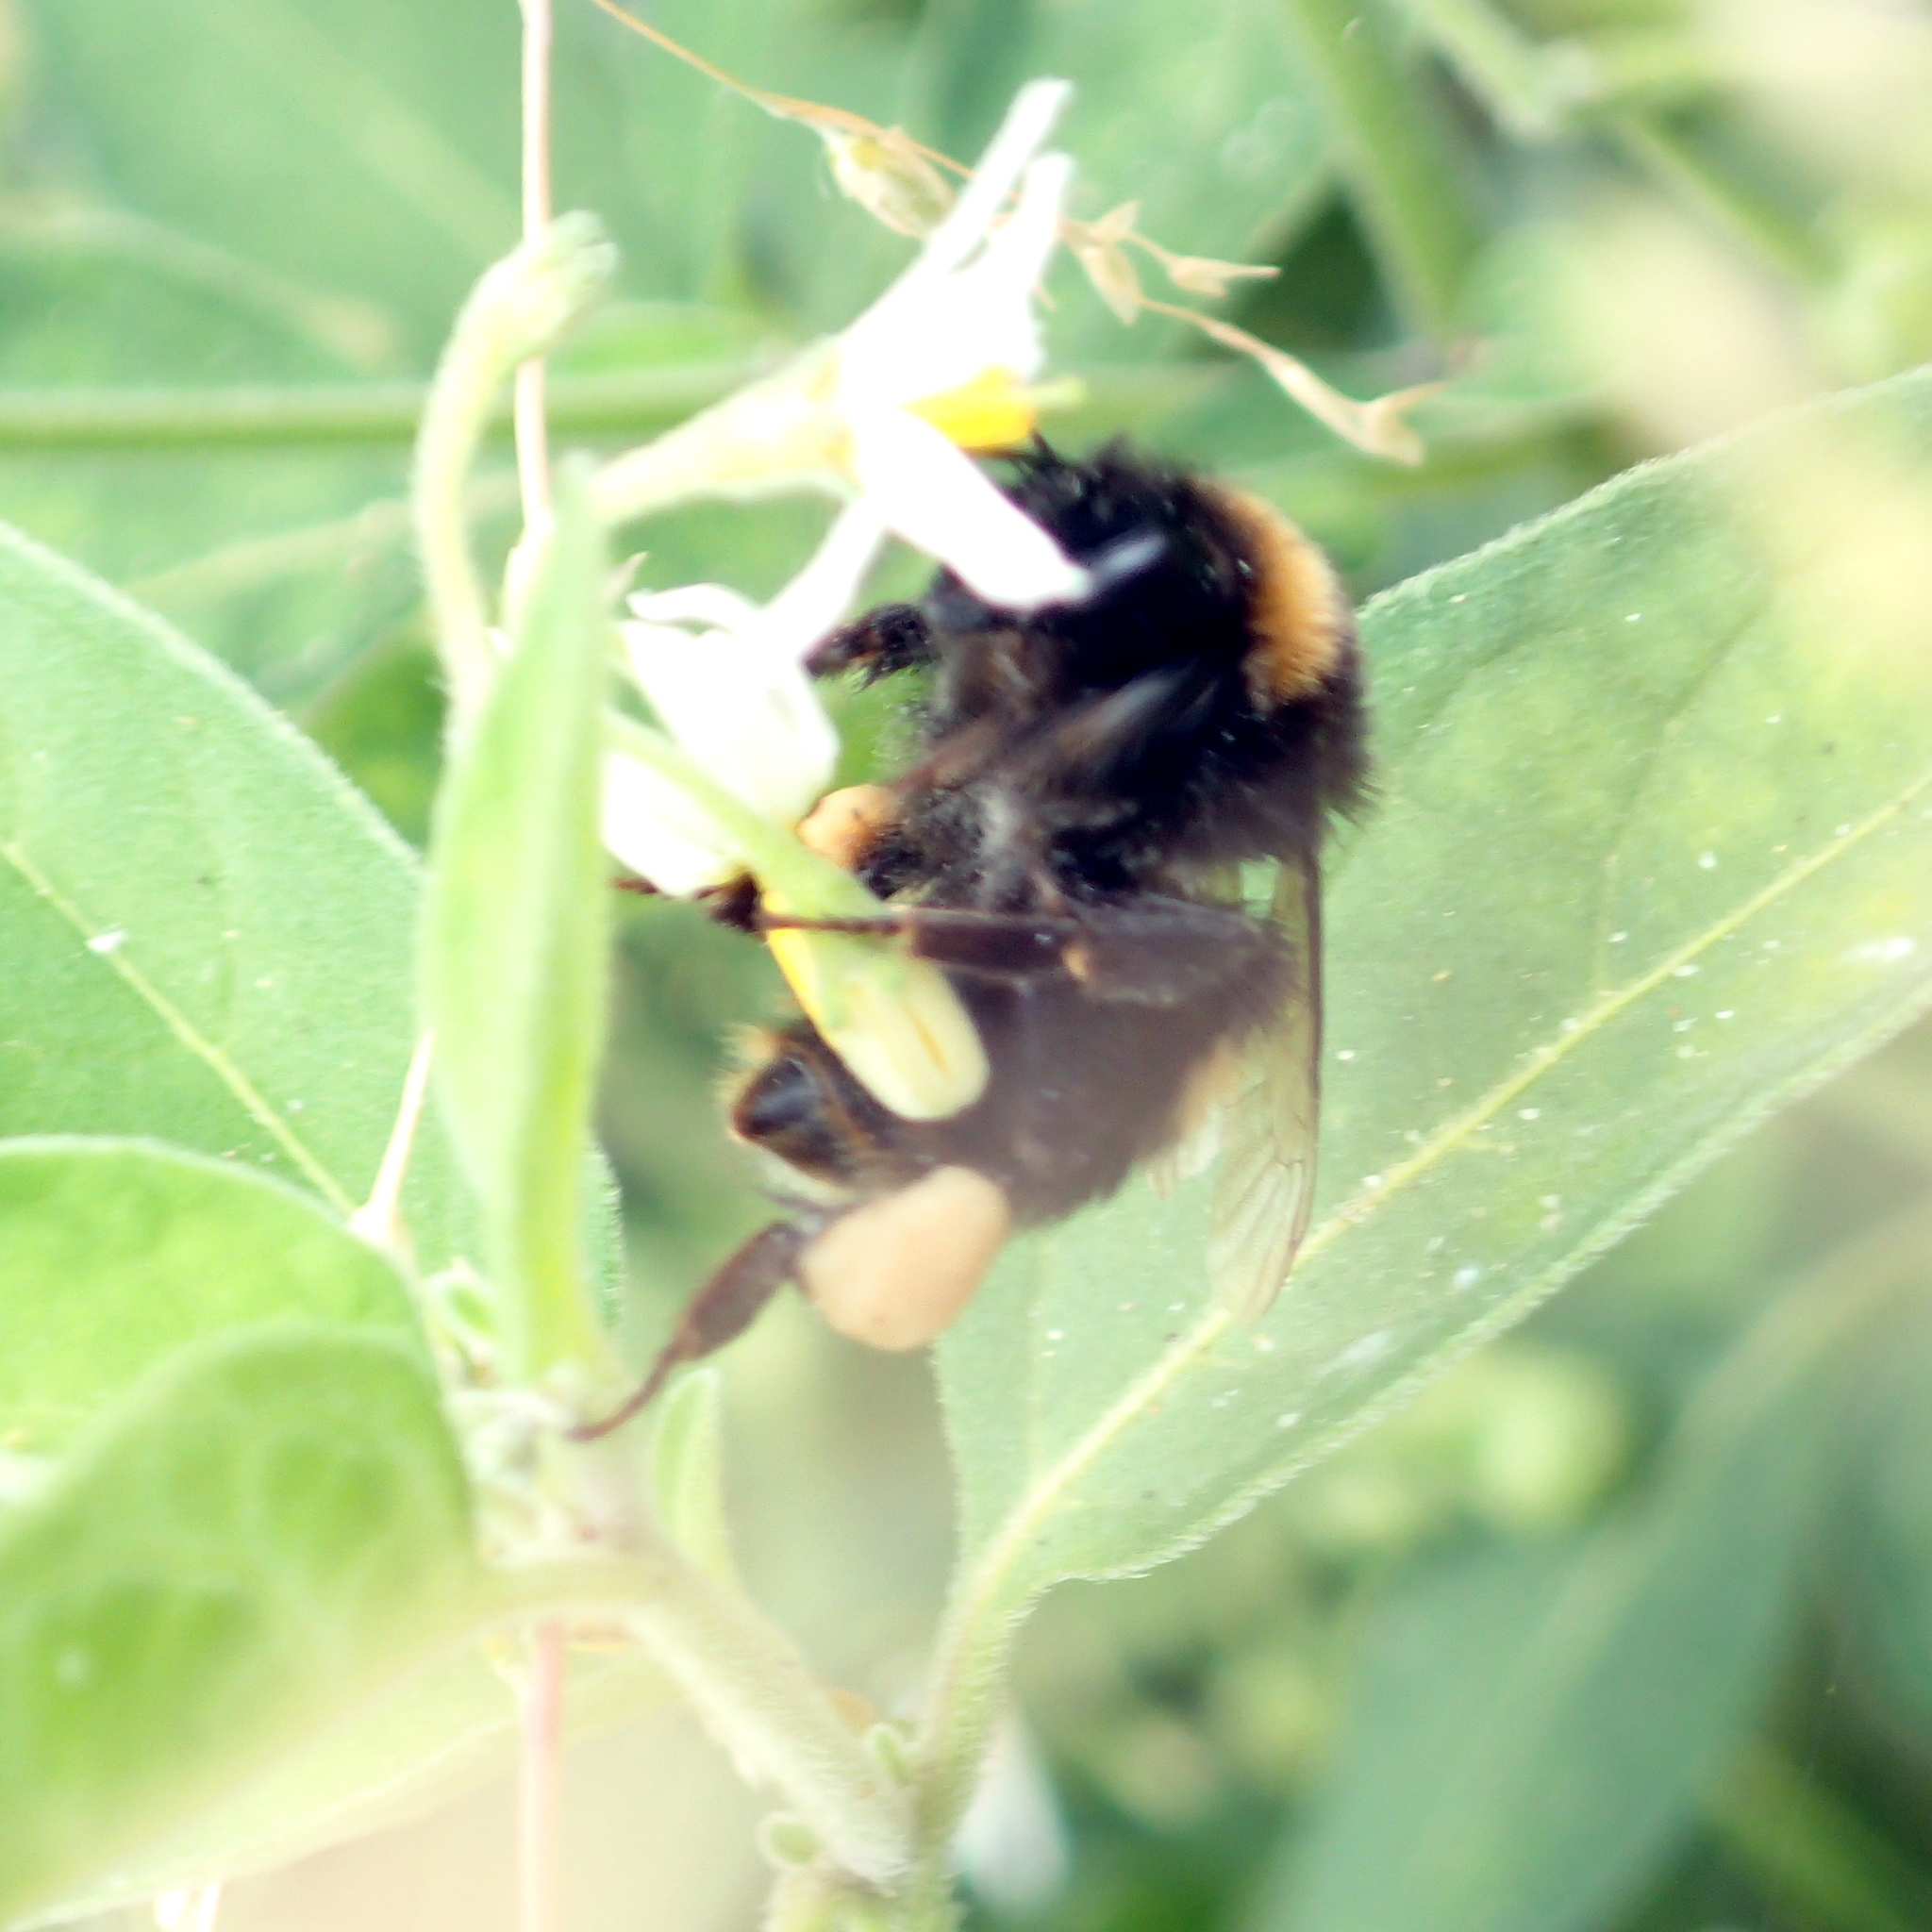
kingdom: Animalia
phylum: Arthropoda
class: Insecta
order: Hymenoptera
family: Apidae
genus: Bombus
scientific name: Bombus terrestris
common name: Buff-tailed bumblebee
